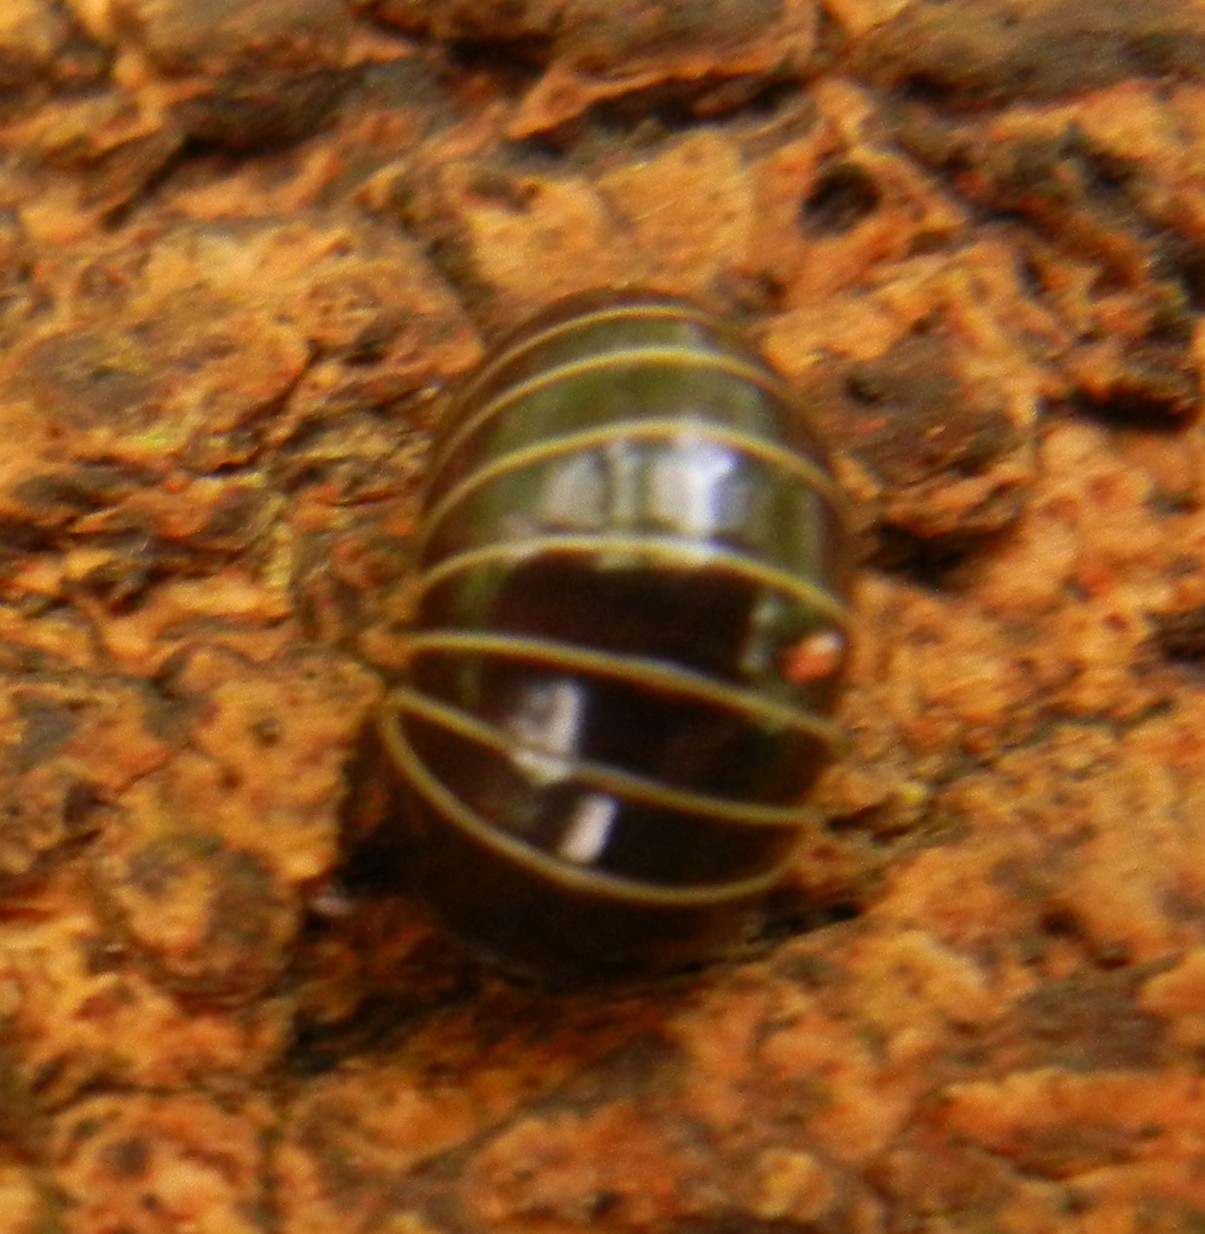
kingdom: Animalia
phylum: Arthropoda
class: Diplopoda
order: Glomerida
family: Glomeridae
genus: Glomeris
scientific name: Glomeris marginata
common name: Bordered pill millipede
